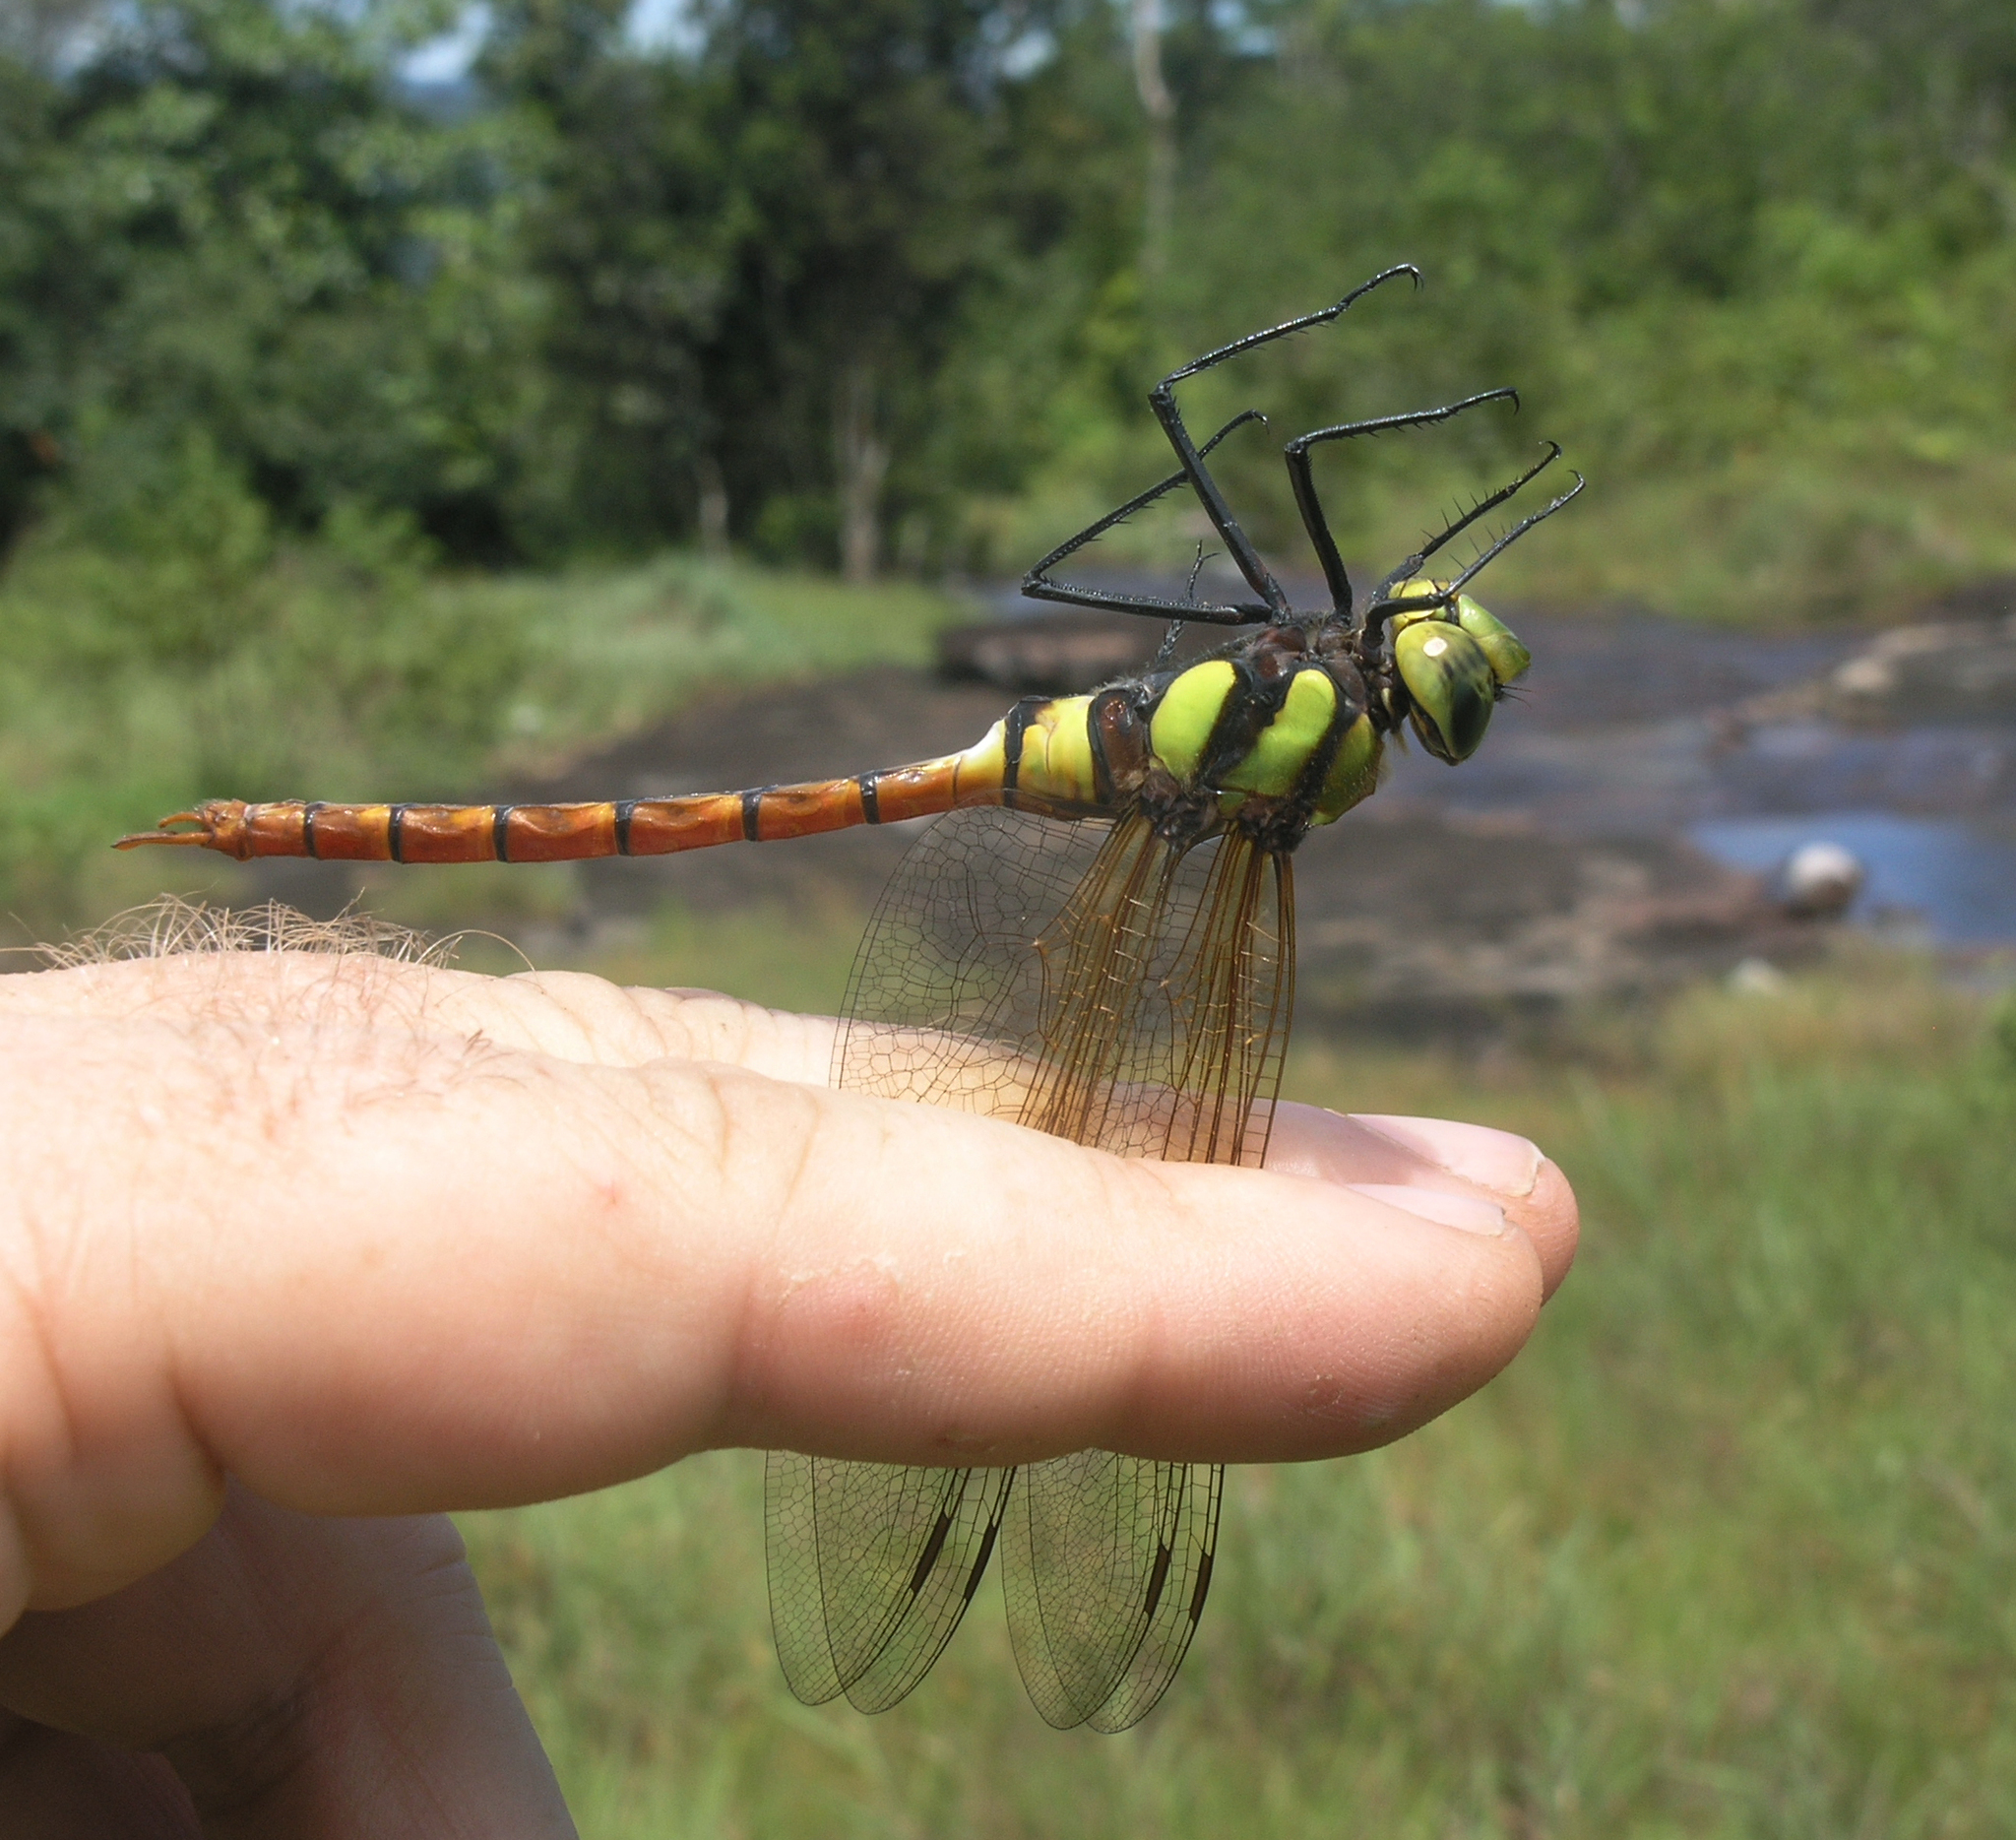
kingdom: Animalia
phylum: Arthropoda
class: Insecta
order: Odonata
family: Aeshnidae
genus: Anax
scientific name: Anax aurantiacus
